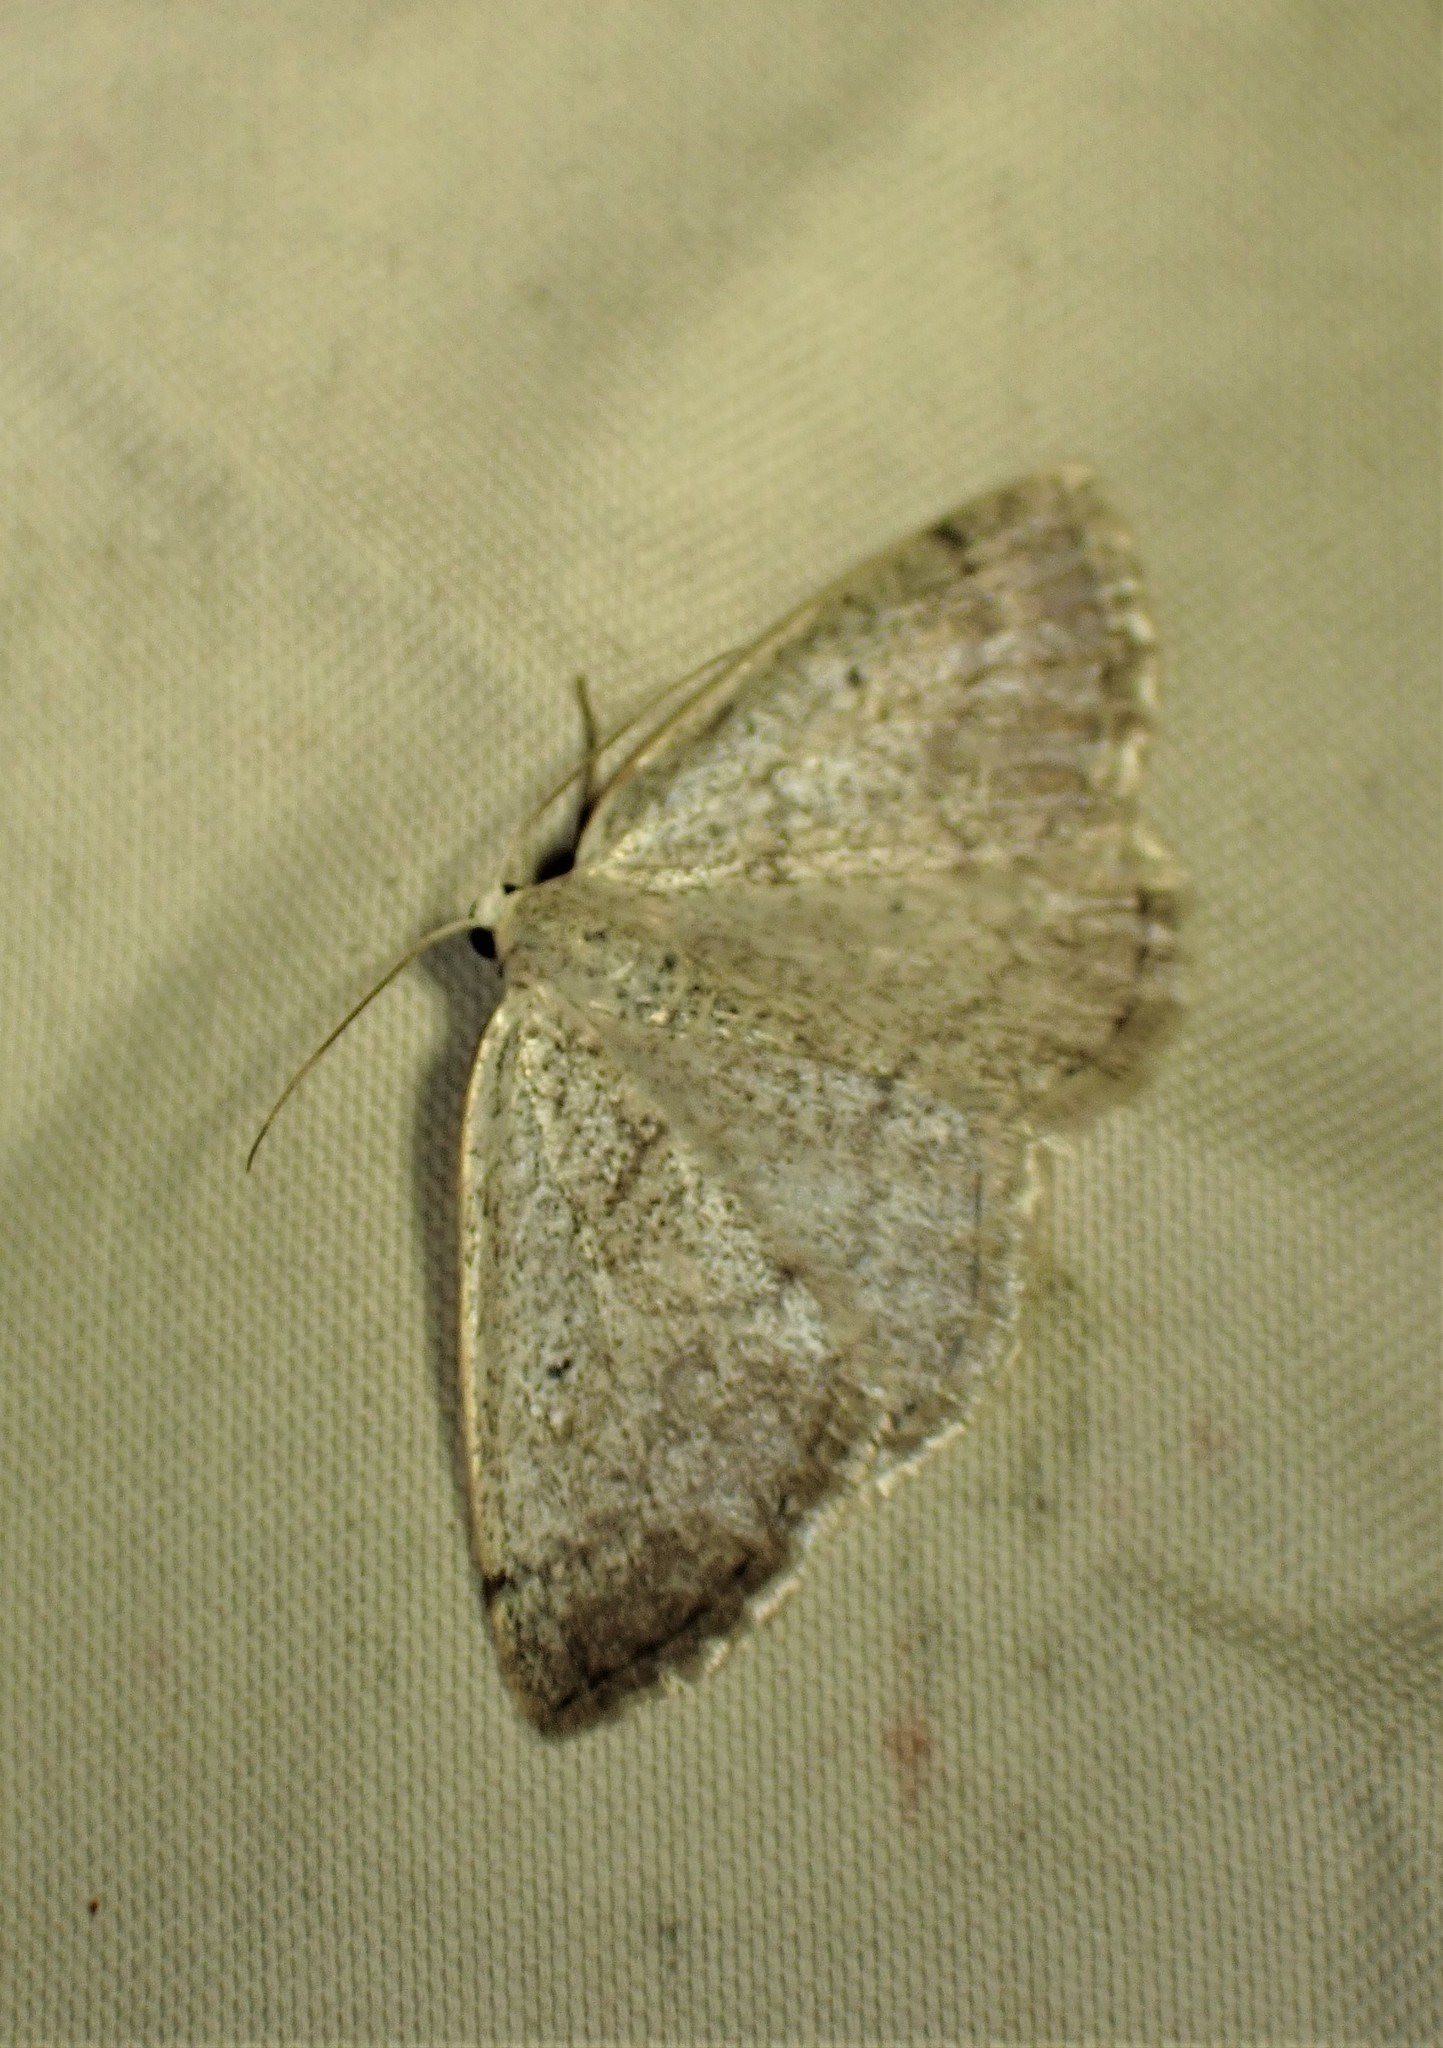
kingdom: Animalia
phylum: Arthropoda
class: Insecta
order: Lepidoptera
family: Geometridae
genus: Lomographa
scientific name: Lomographa glomeraria
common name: Gray spring moth
